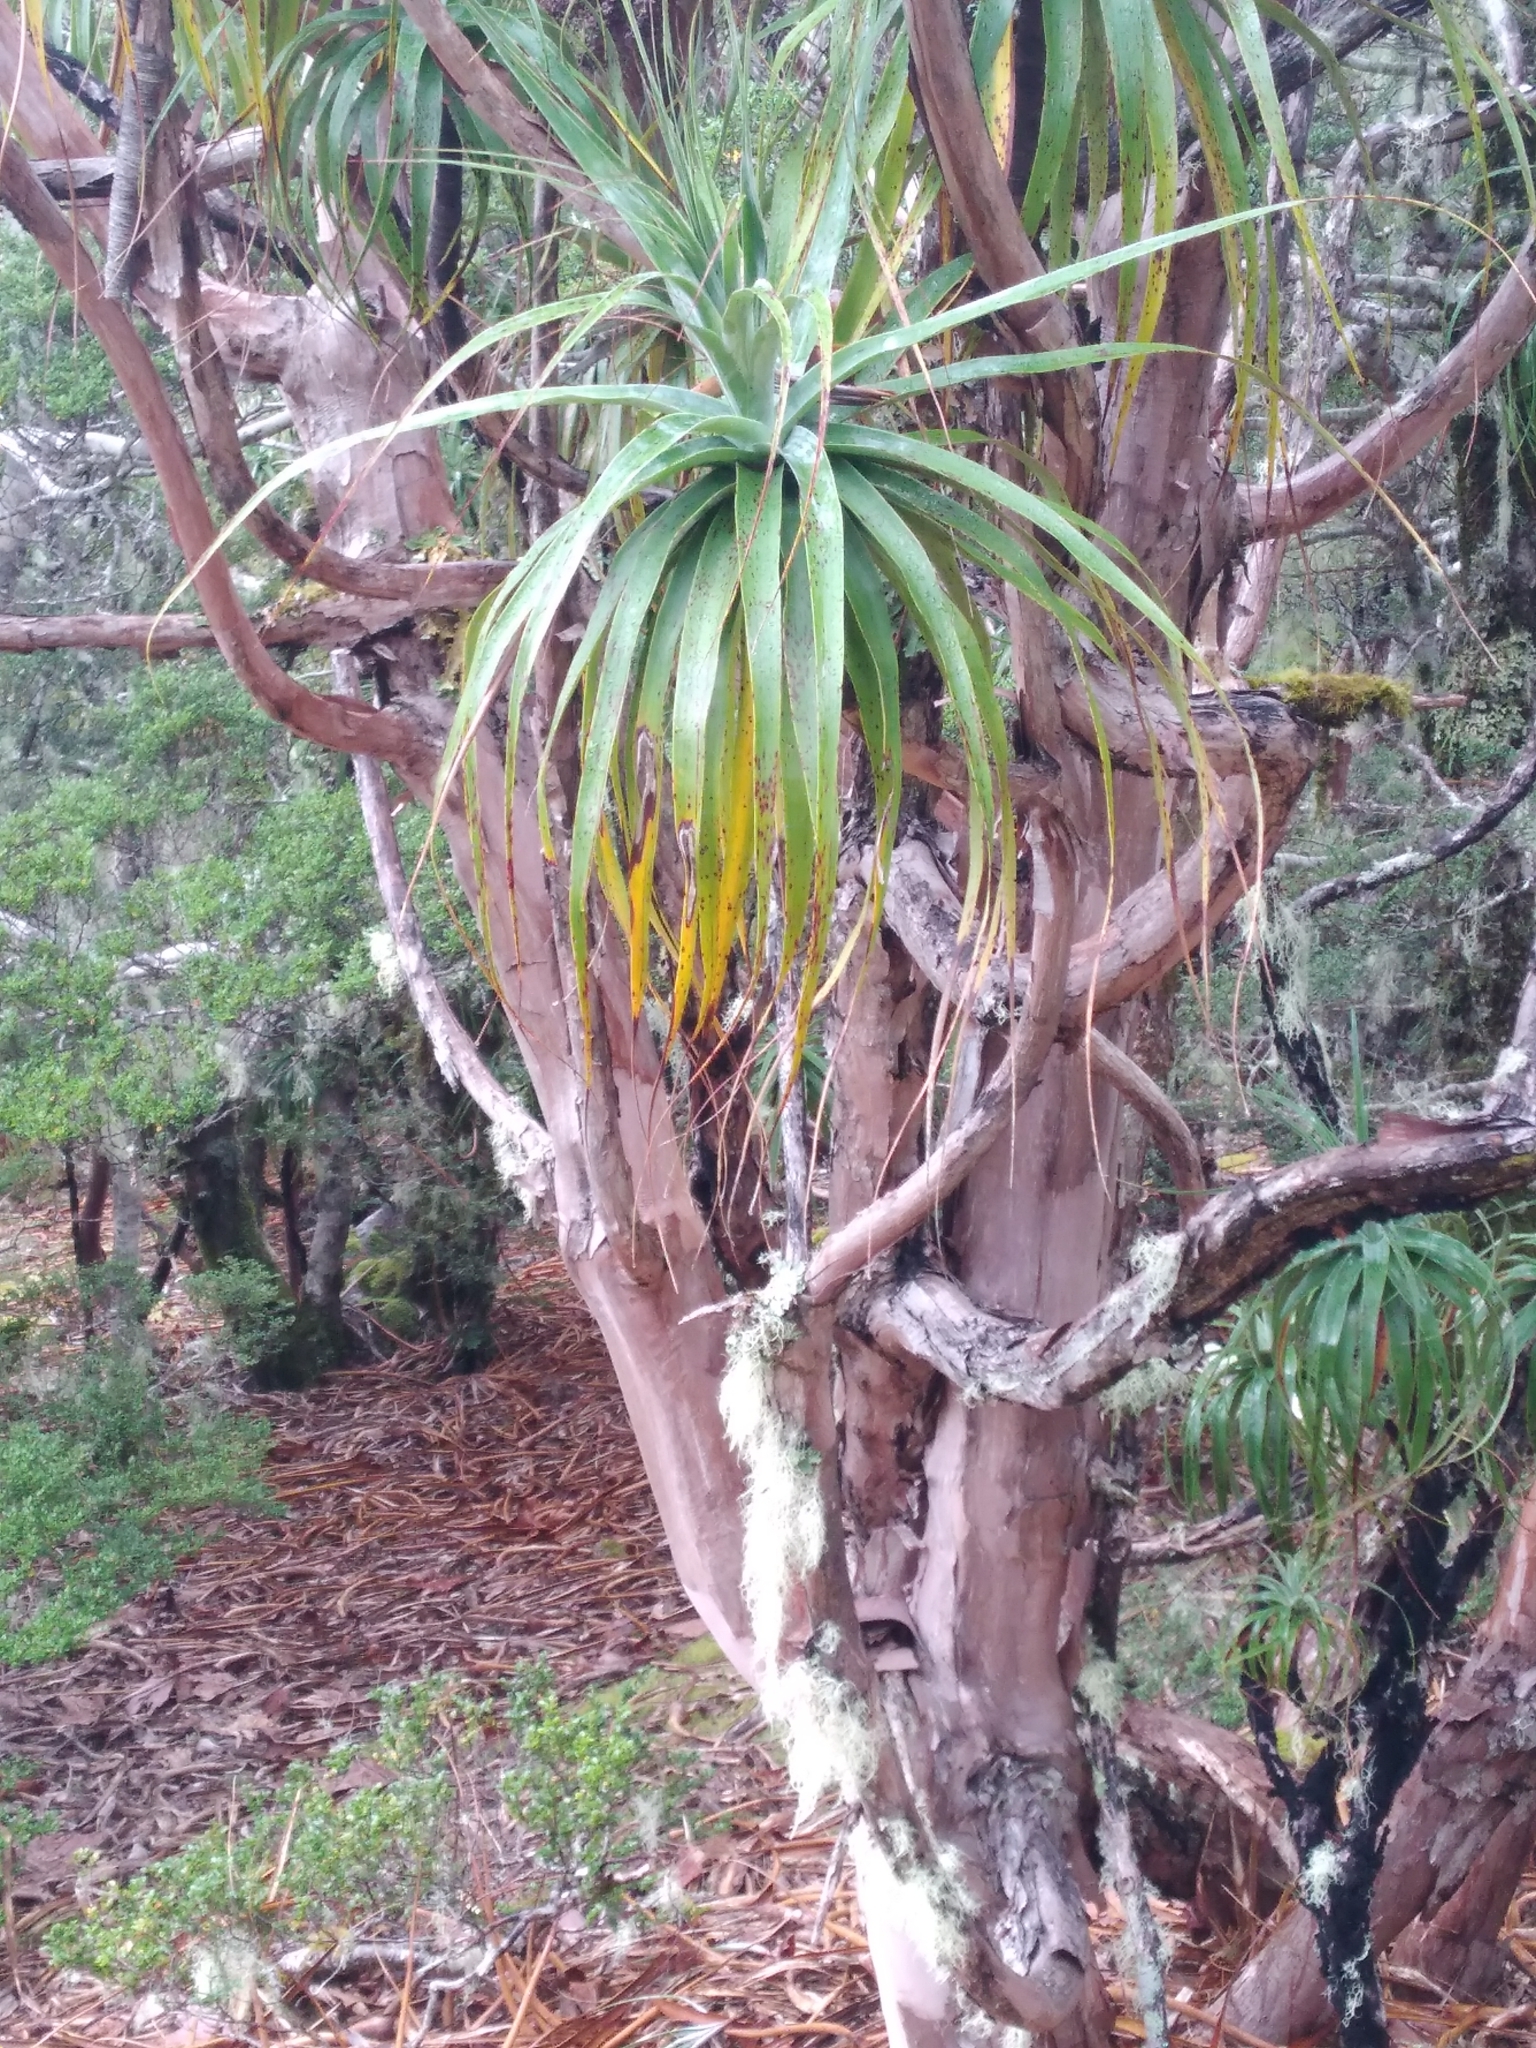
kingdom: Plantae
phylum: Tracheophyta
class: Magnoliopsida
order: Ericales
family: Ericaceae
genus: Dracophyllum
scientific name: Dracophyllum traversii
